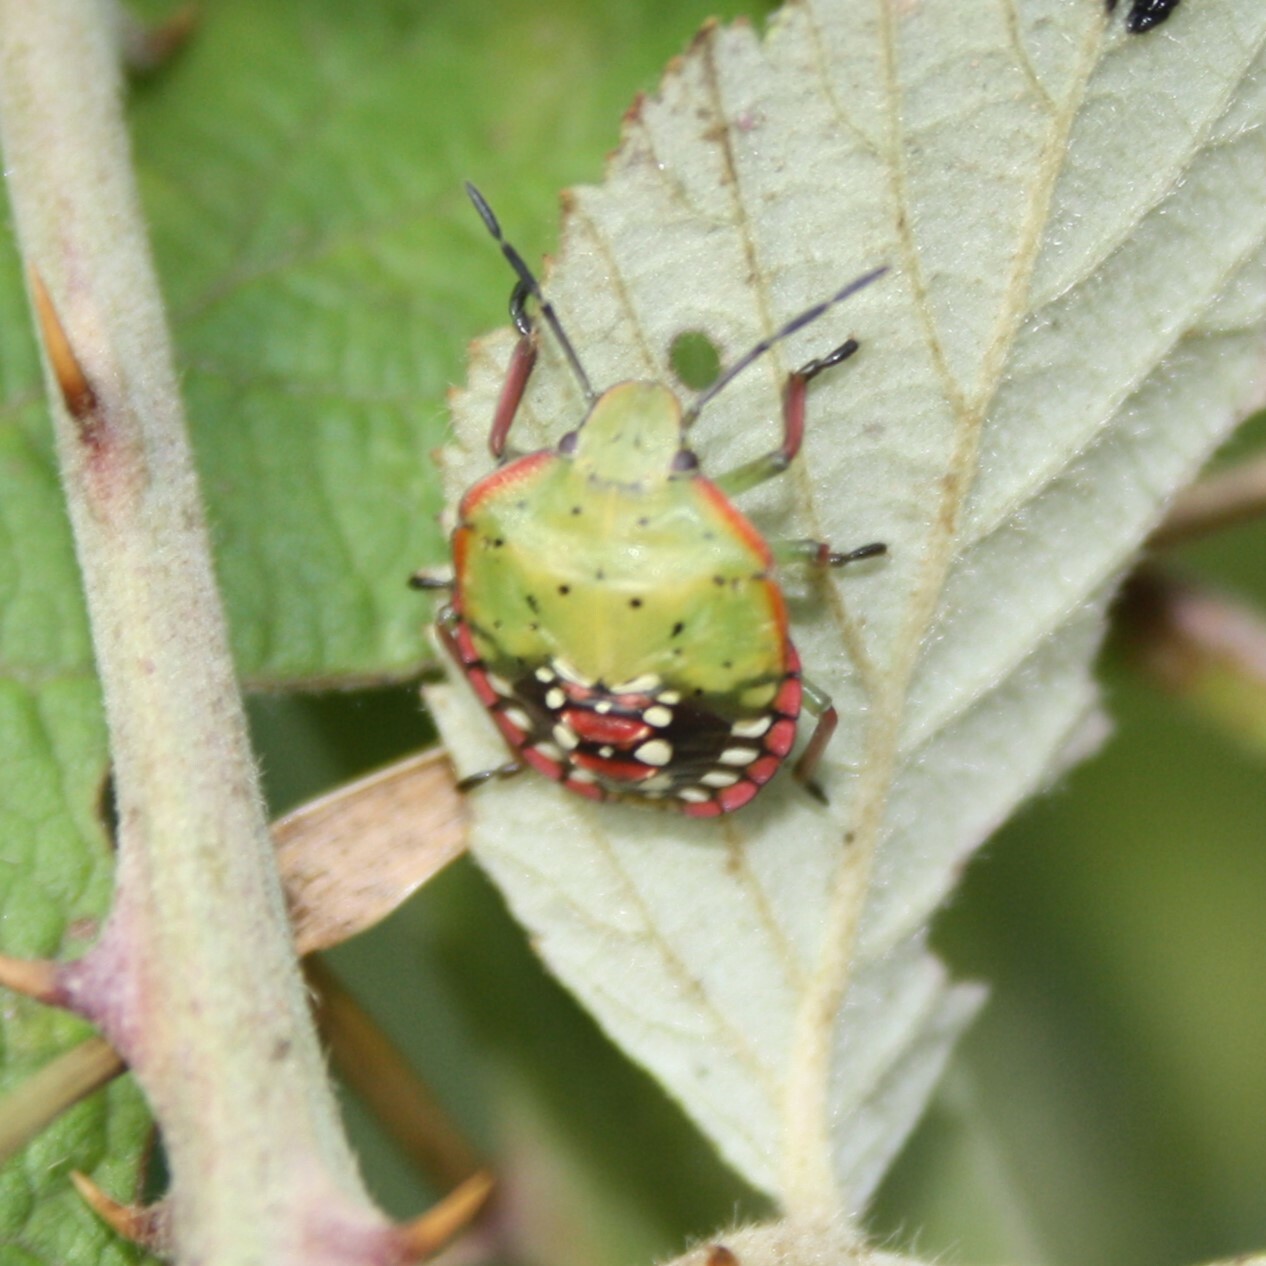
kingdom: Animalia
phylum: Arthropoda
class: Insecta
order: Hemiptera
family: Pentatomidae
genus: Nezara
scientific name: Nezara viridula
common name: Southern green stink bug
